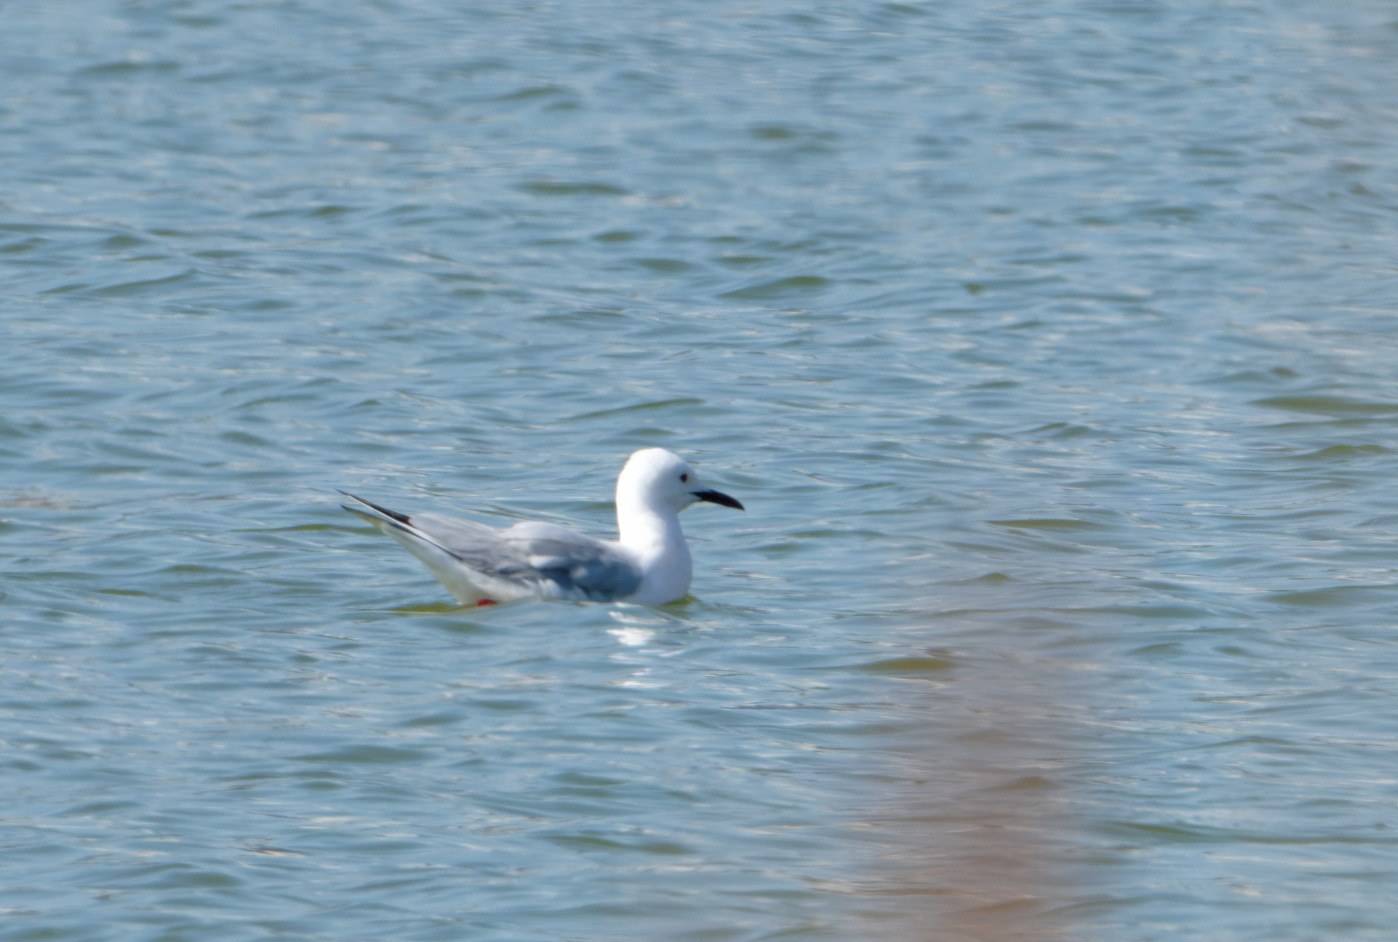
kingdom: Animalia
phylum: Chordata
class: Aves
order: Charadriiformes
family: Laridae
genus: Chroicocephalus
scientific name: Chroicocephalus genei
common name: Slender-billed gull
